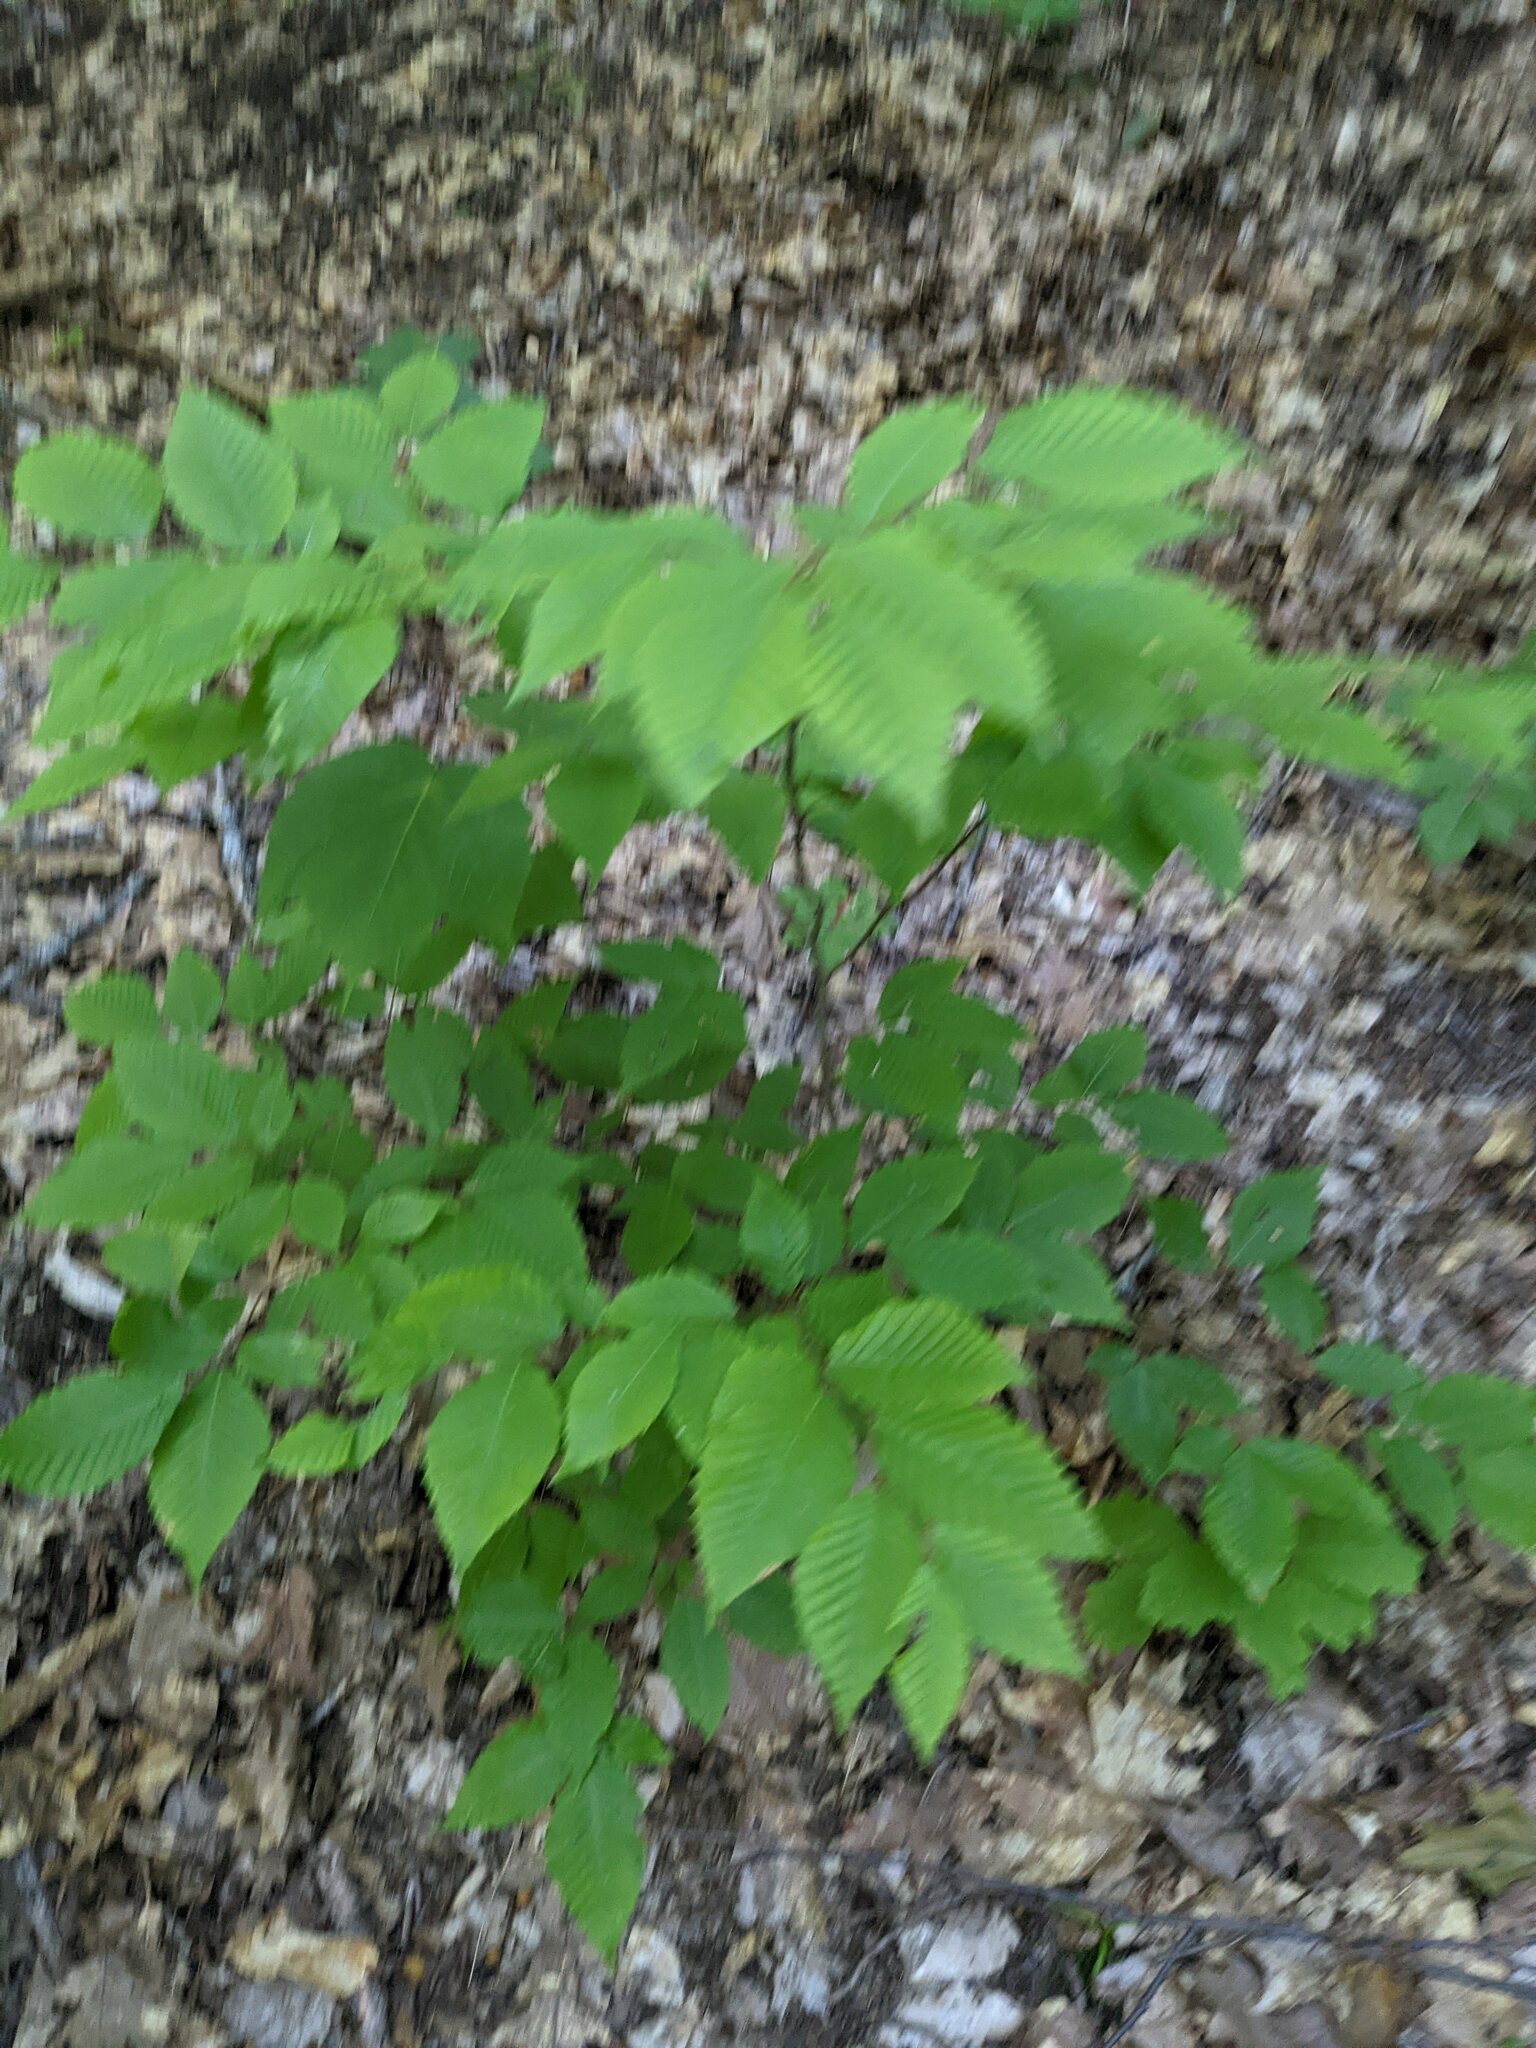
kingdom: Plantae
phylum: Tracheophyta
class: Magnoliopsida
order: Fagales
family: Fagaceae
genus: Fagus
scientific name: Fagus grandifolia
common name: American beech
